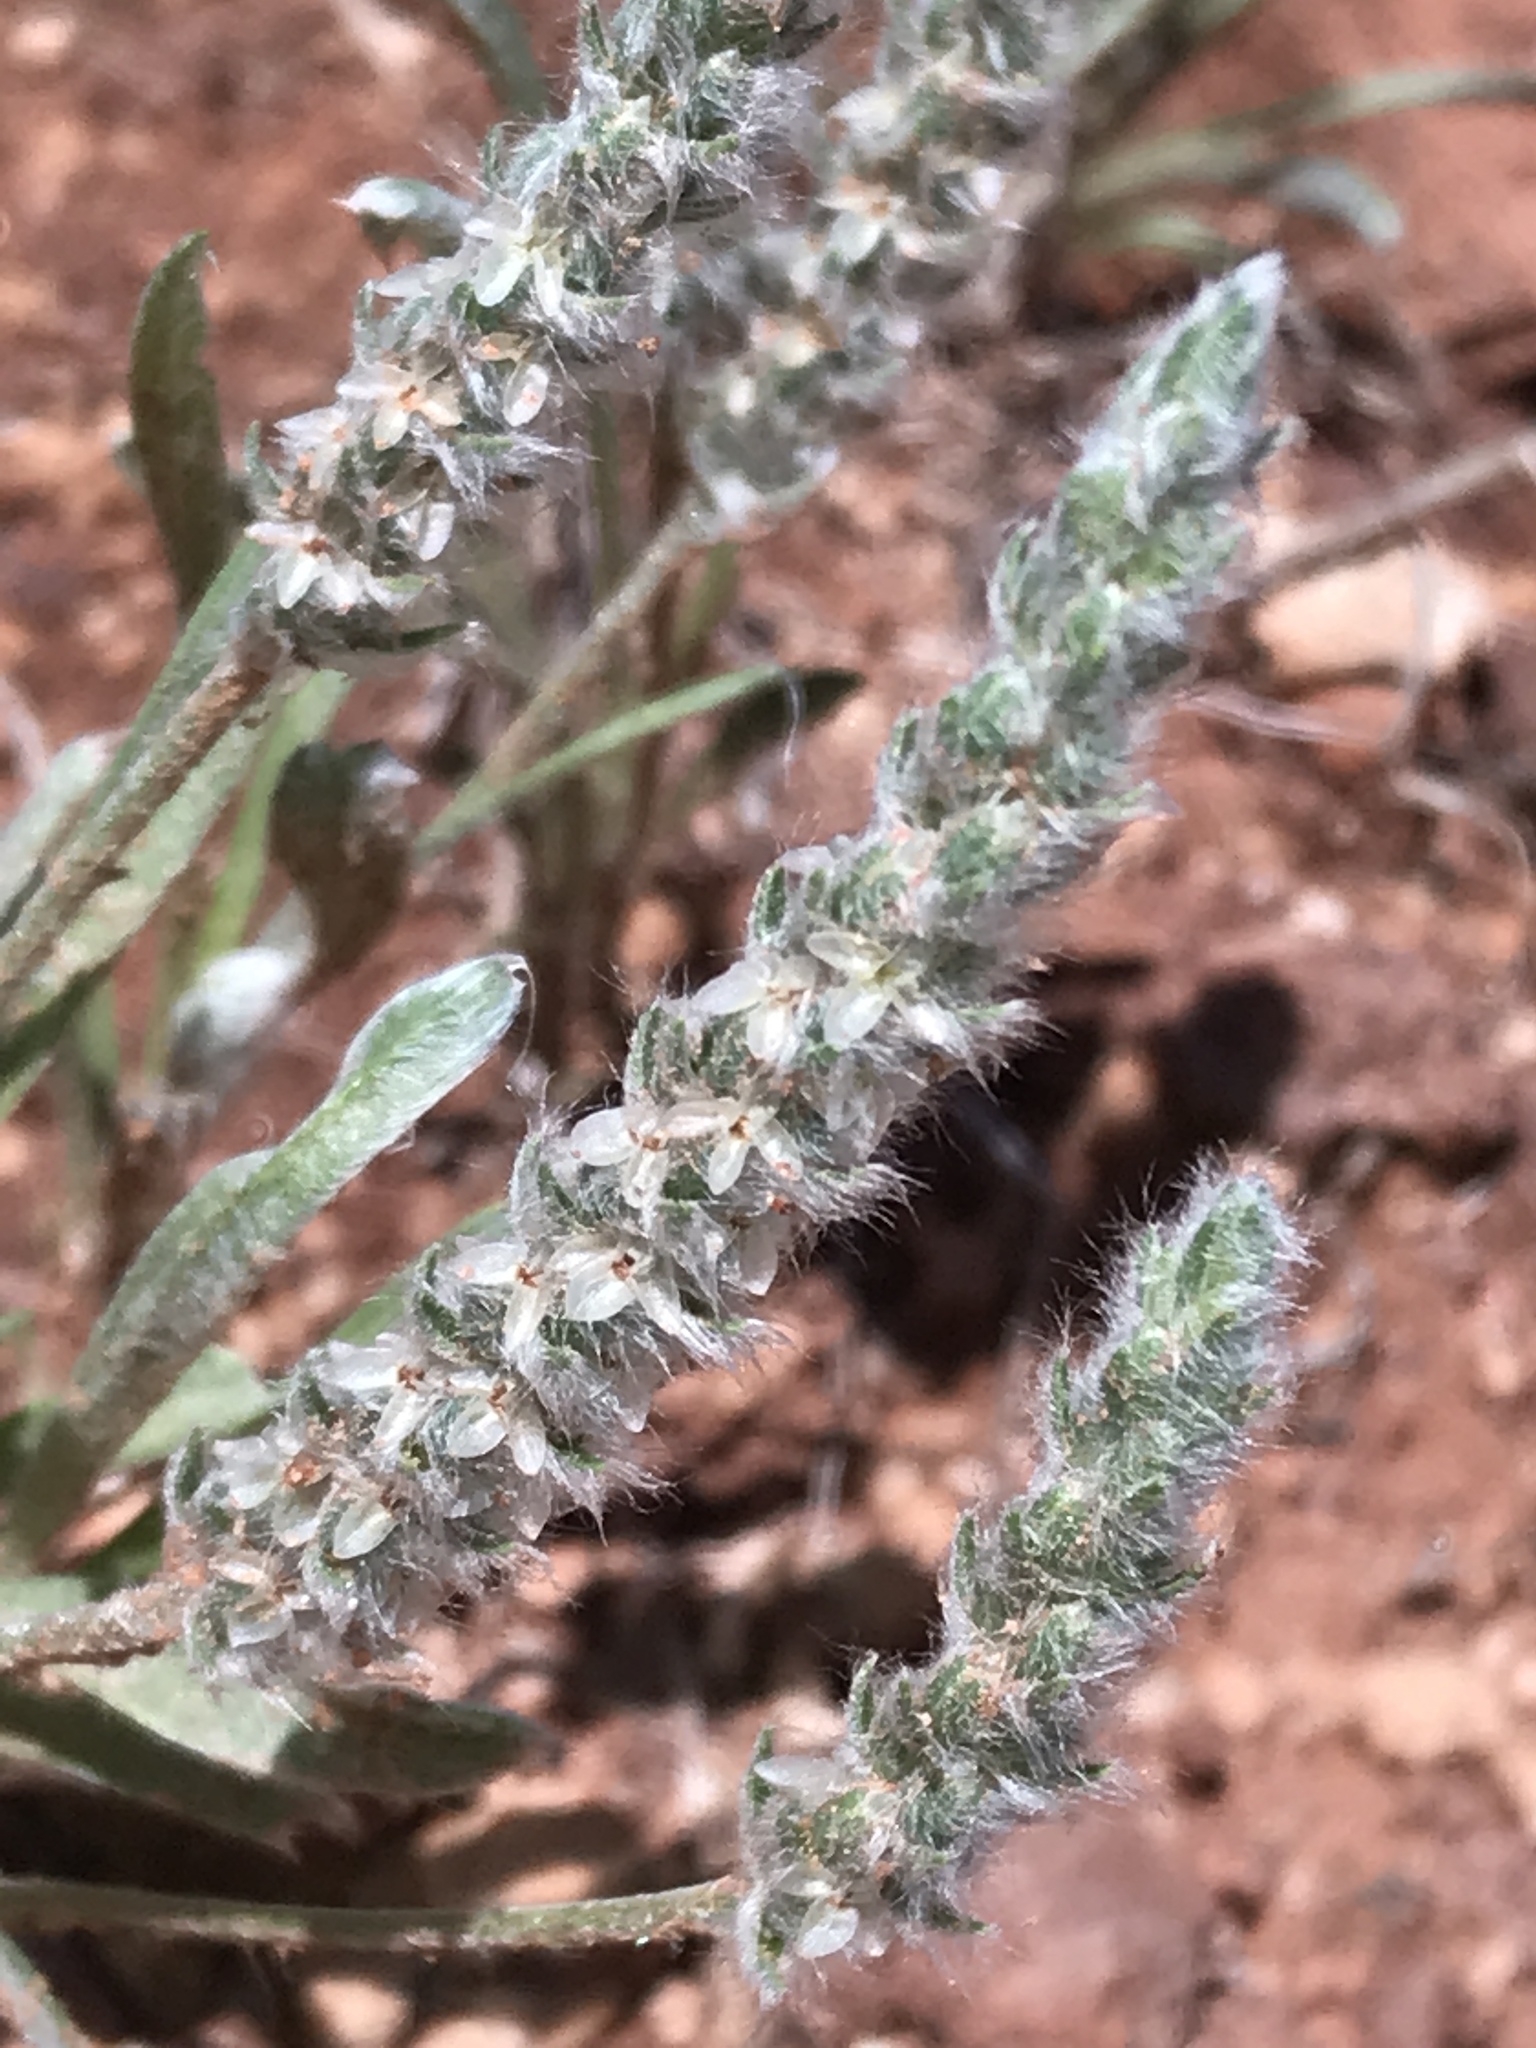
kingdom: Plantae
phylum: Tracheophyta
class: Magnoliopsida
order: Lamiales
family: Plantaginaceae
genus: Plantago
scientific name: Plantago patagonica
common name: Patagonia indian-wheat
